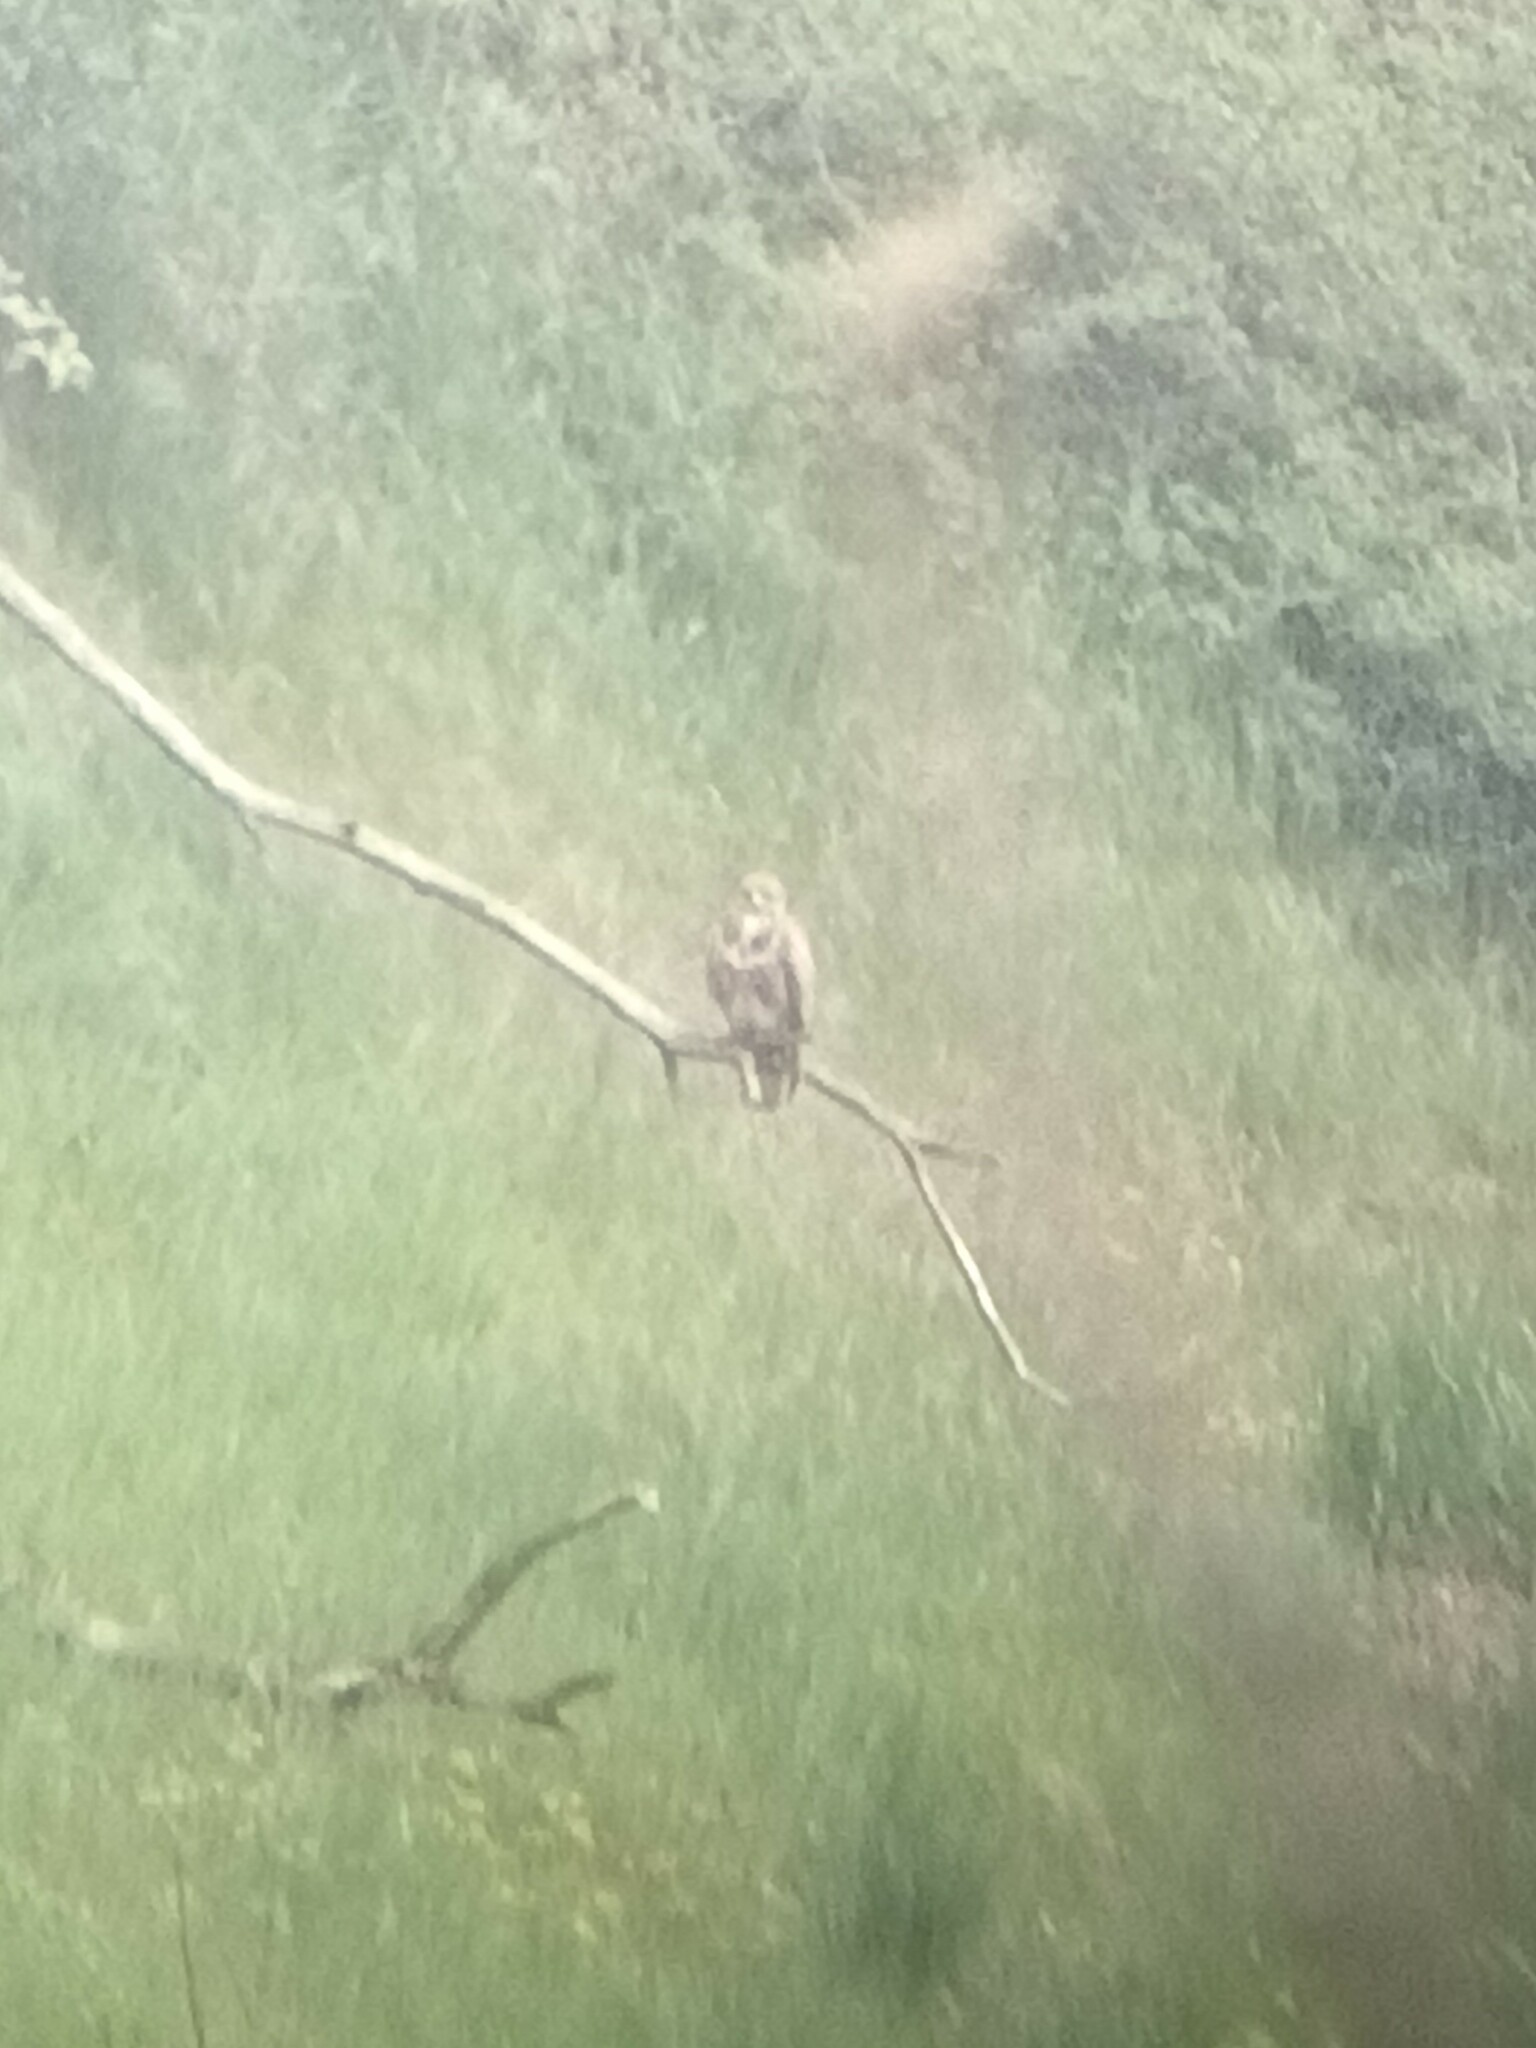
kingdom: Animalia
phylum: Chordata
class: Aves
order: Accipitriformes
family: Accipitridae
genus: Buteo
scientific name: Buteo buteo
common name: Common buzzard
